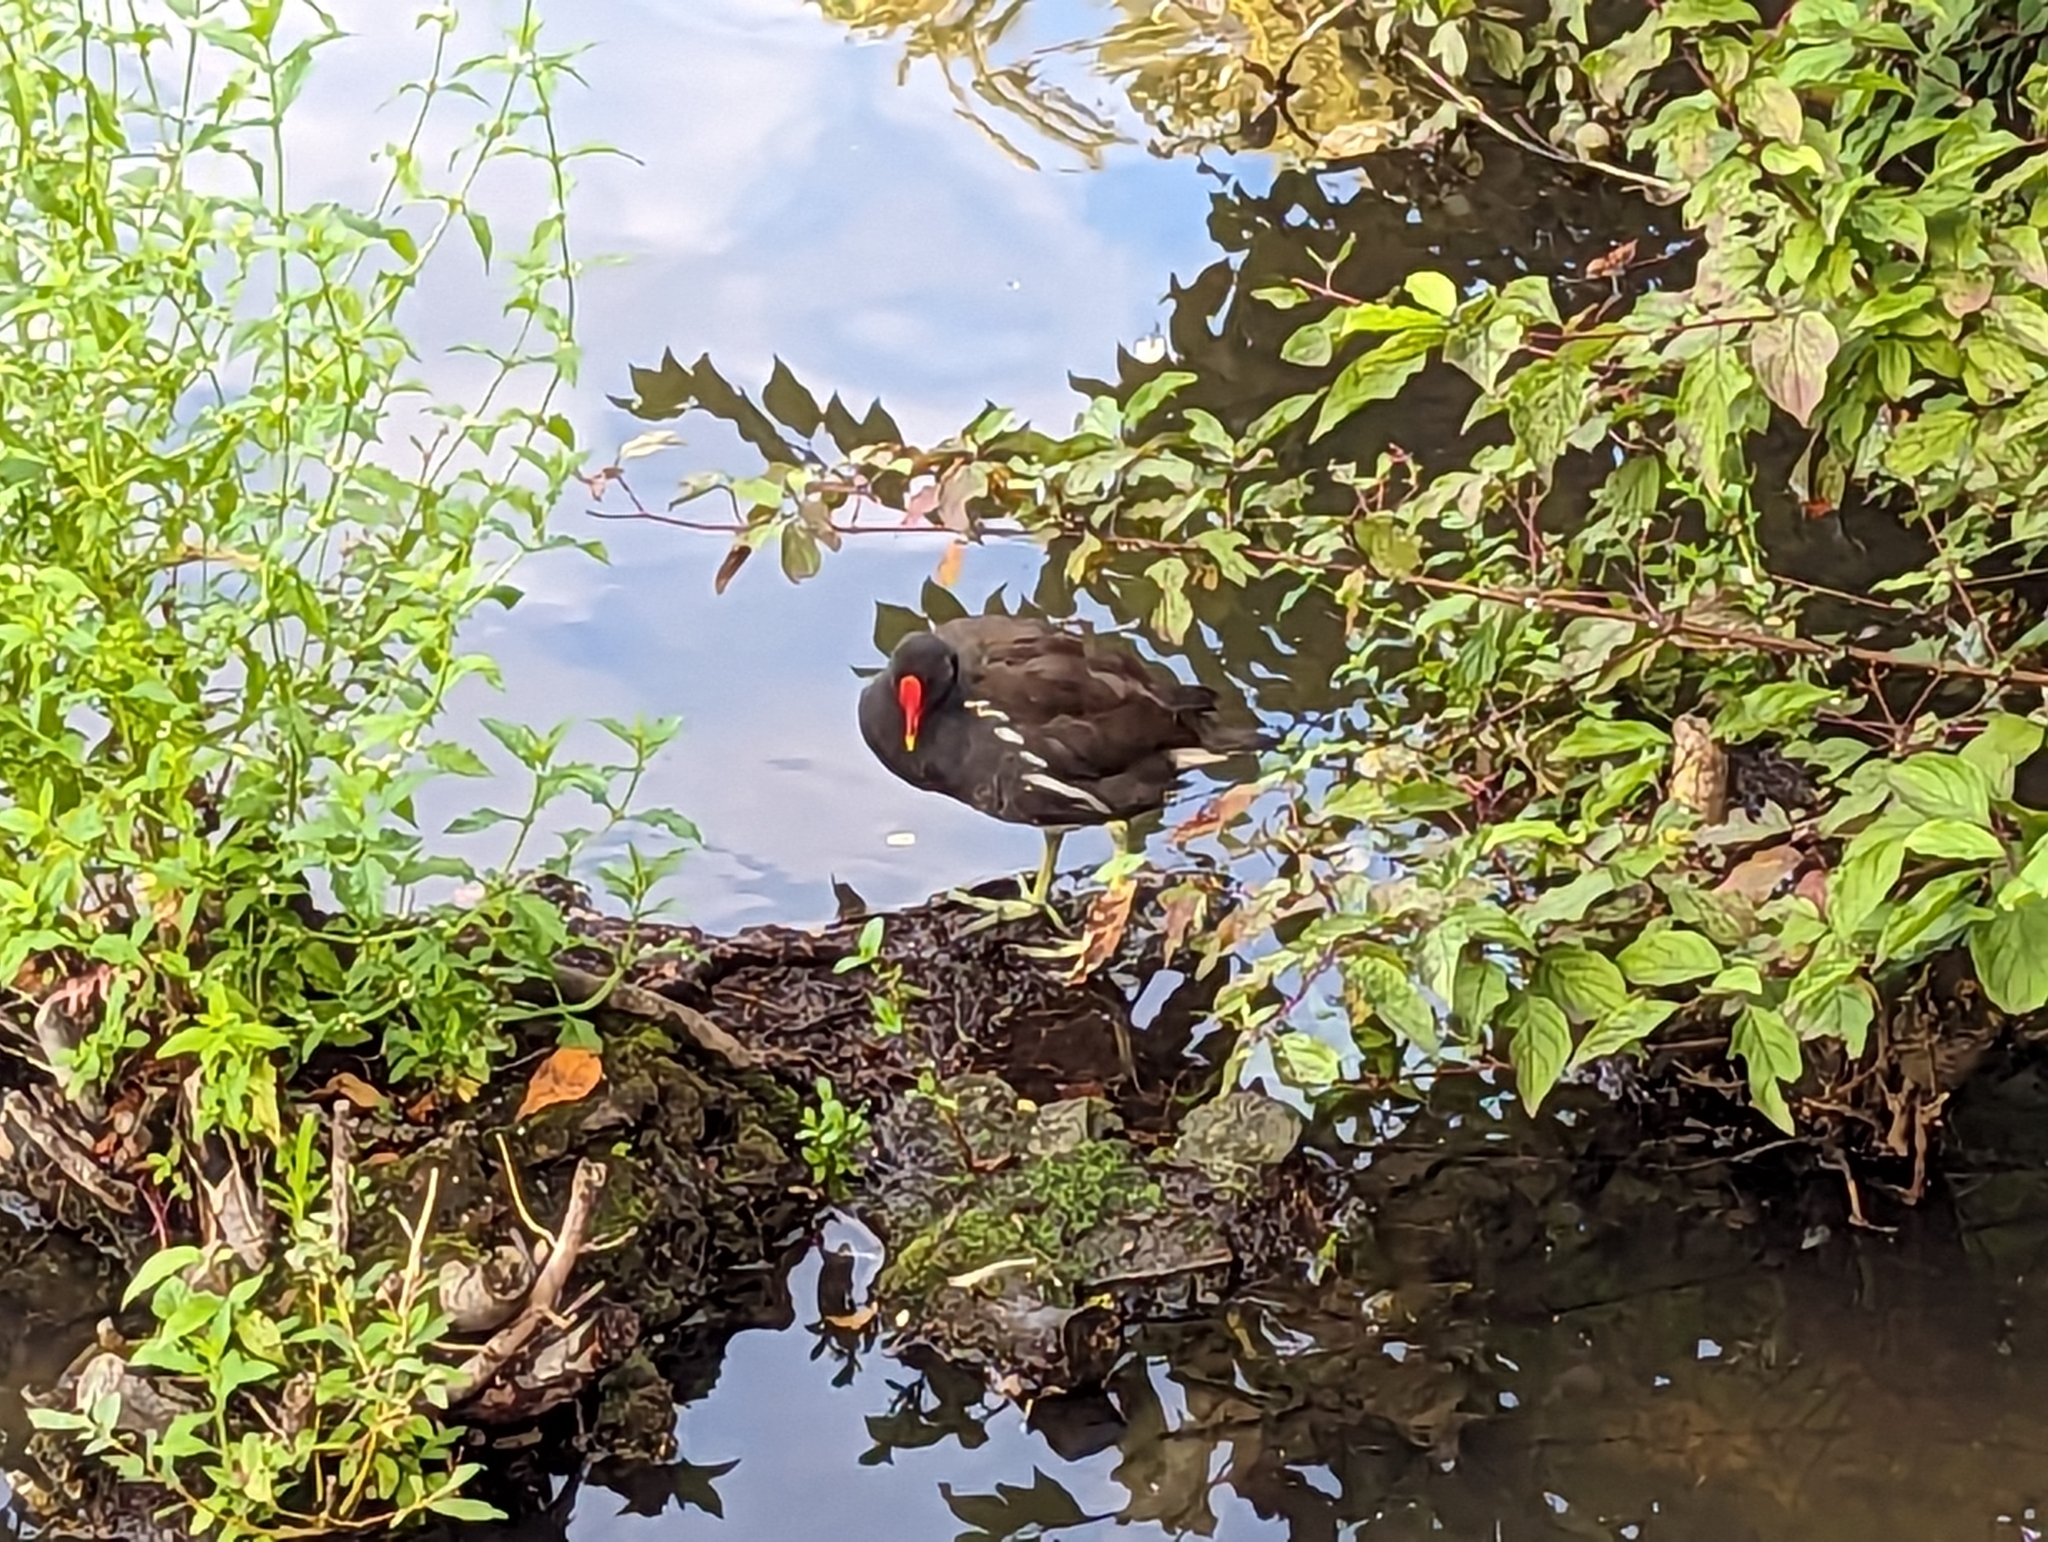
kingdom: Animalia
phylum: Chordata
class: Aves
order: Gruiformes
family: Rallidae
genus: Gallinula
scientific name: Gallinula chloropus
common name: Common moorhen
